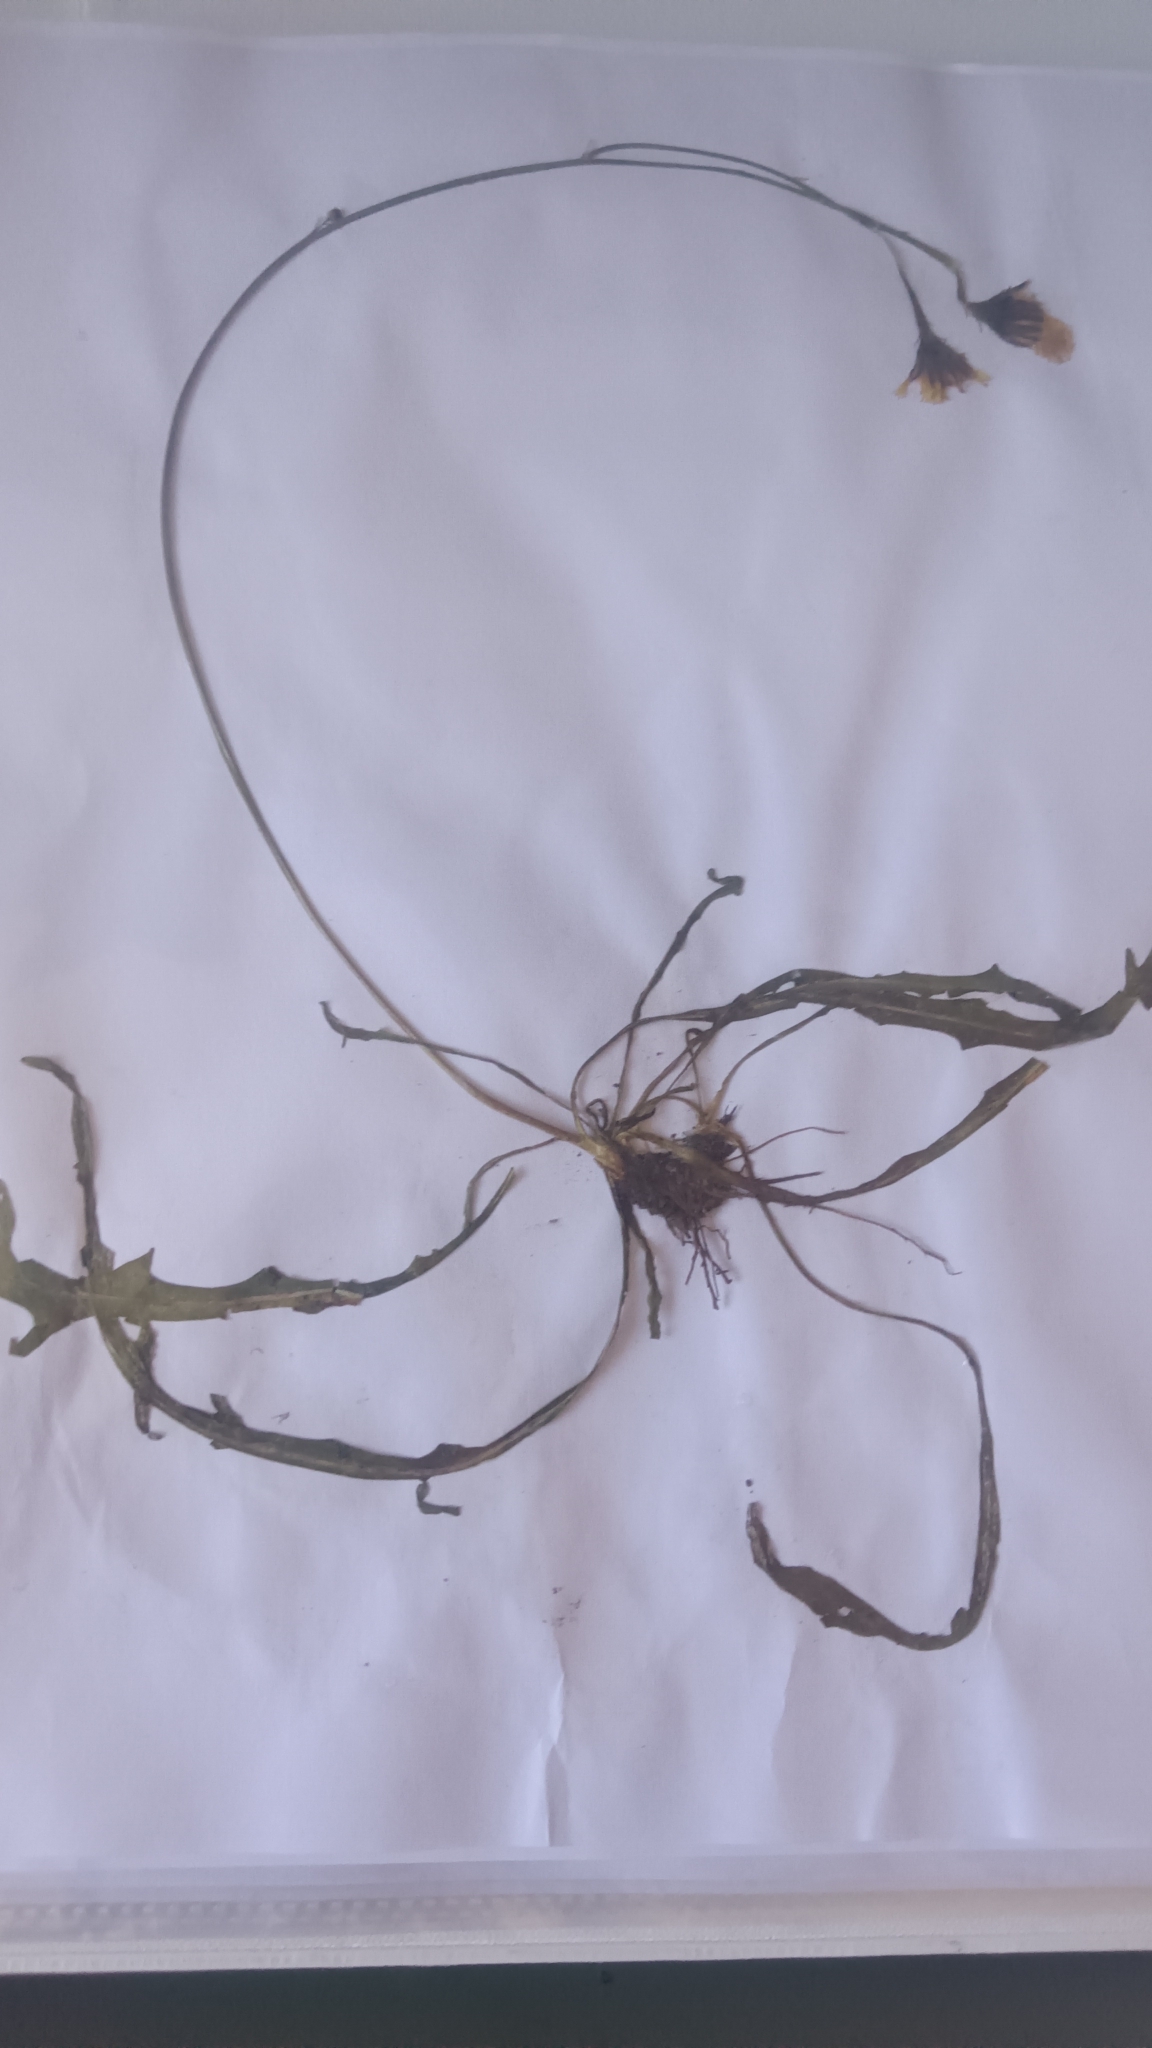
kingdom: Plantae
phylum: Tracheophyta
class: Magnoliopsida
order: Asterales
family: Asteraceae
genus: Scorzoneroides
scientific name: Scorzoneroides autumnalis
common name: Autumn hawkbit
